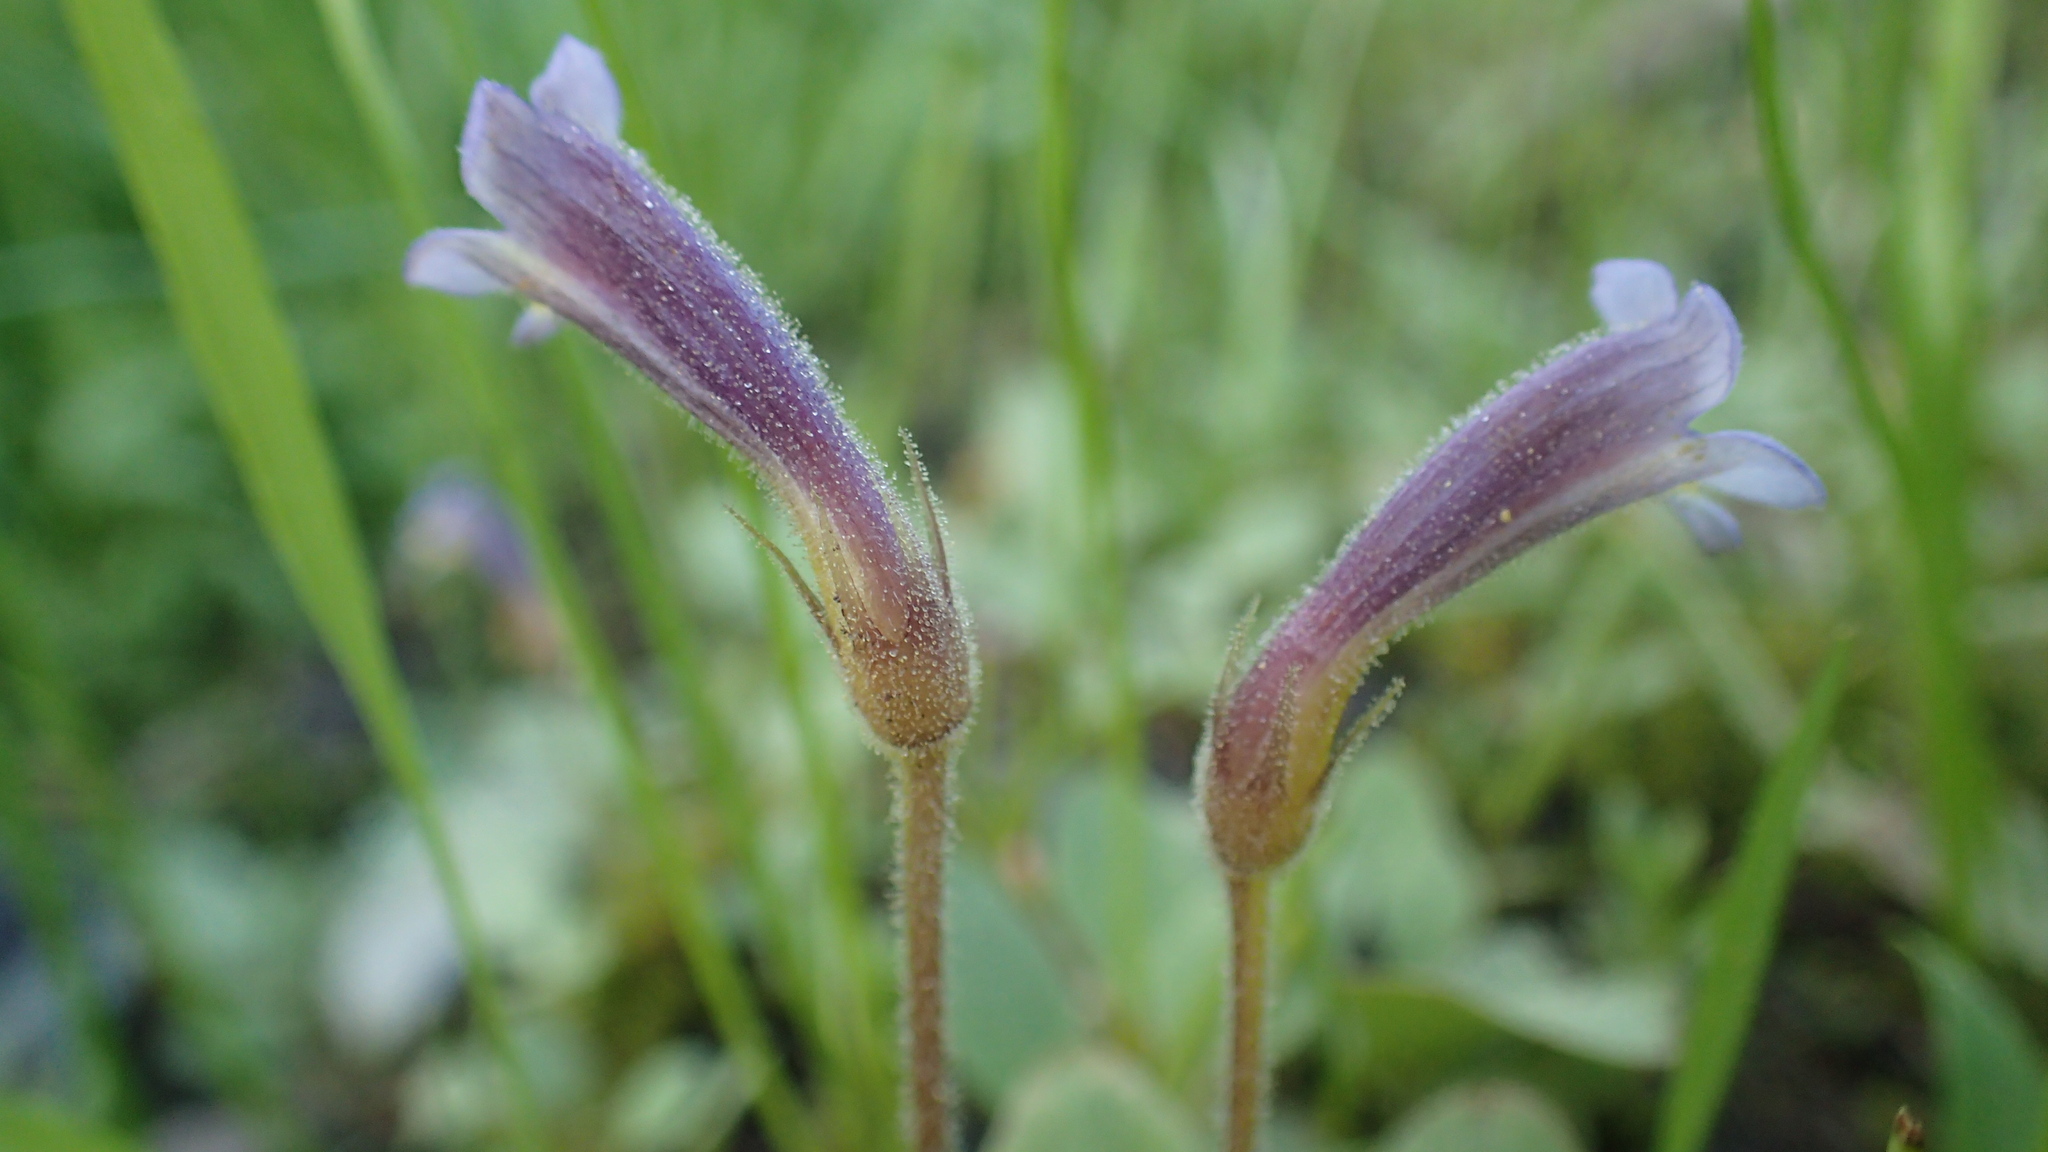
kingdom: Plantae
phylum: Tracheophyta
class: Magnoliopsida
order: Lamiales
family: Orobanchaceae
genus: Aphyllon
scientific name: Aphyllon uniflorum
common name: One-flowered broomrape
